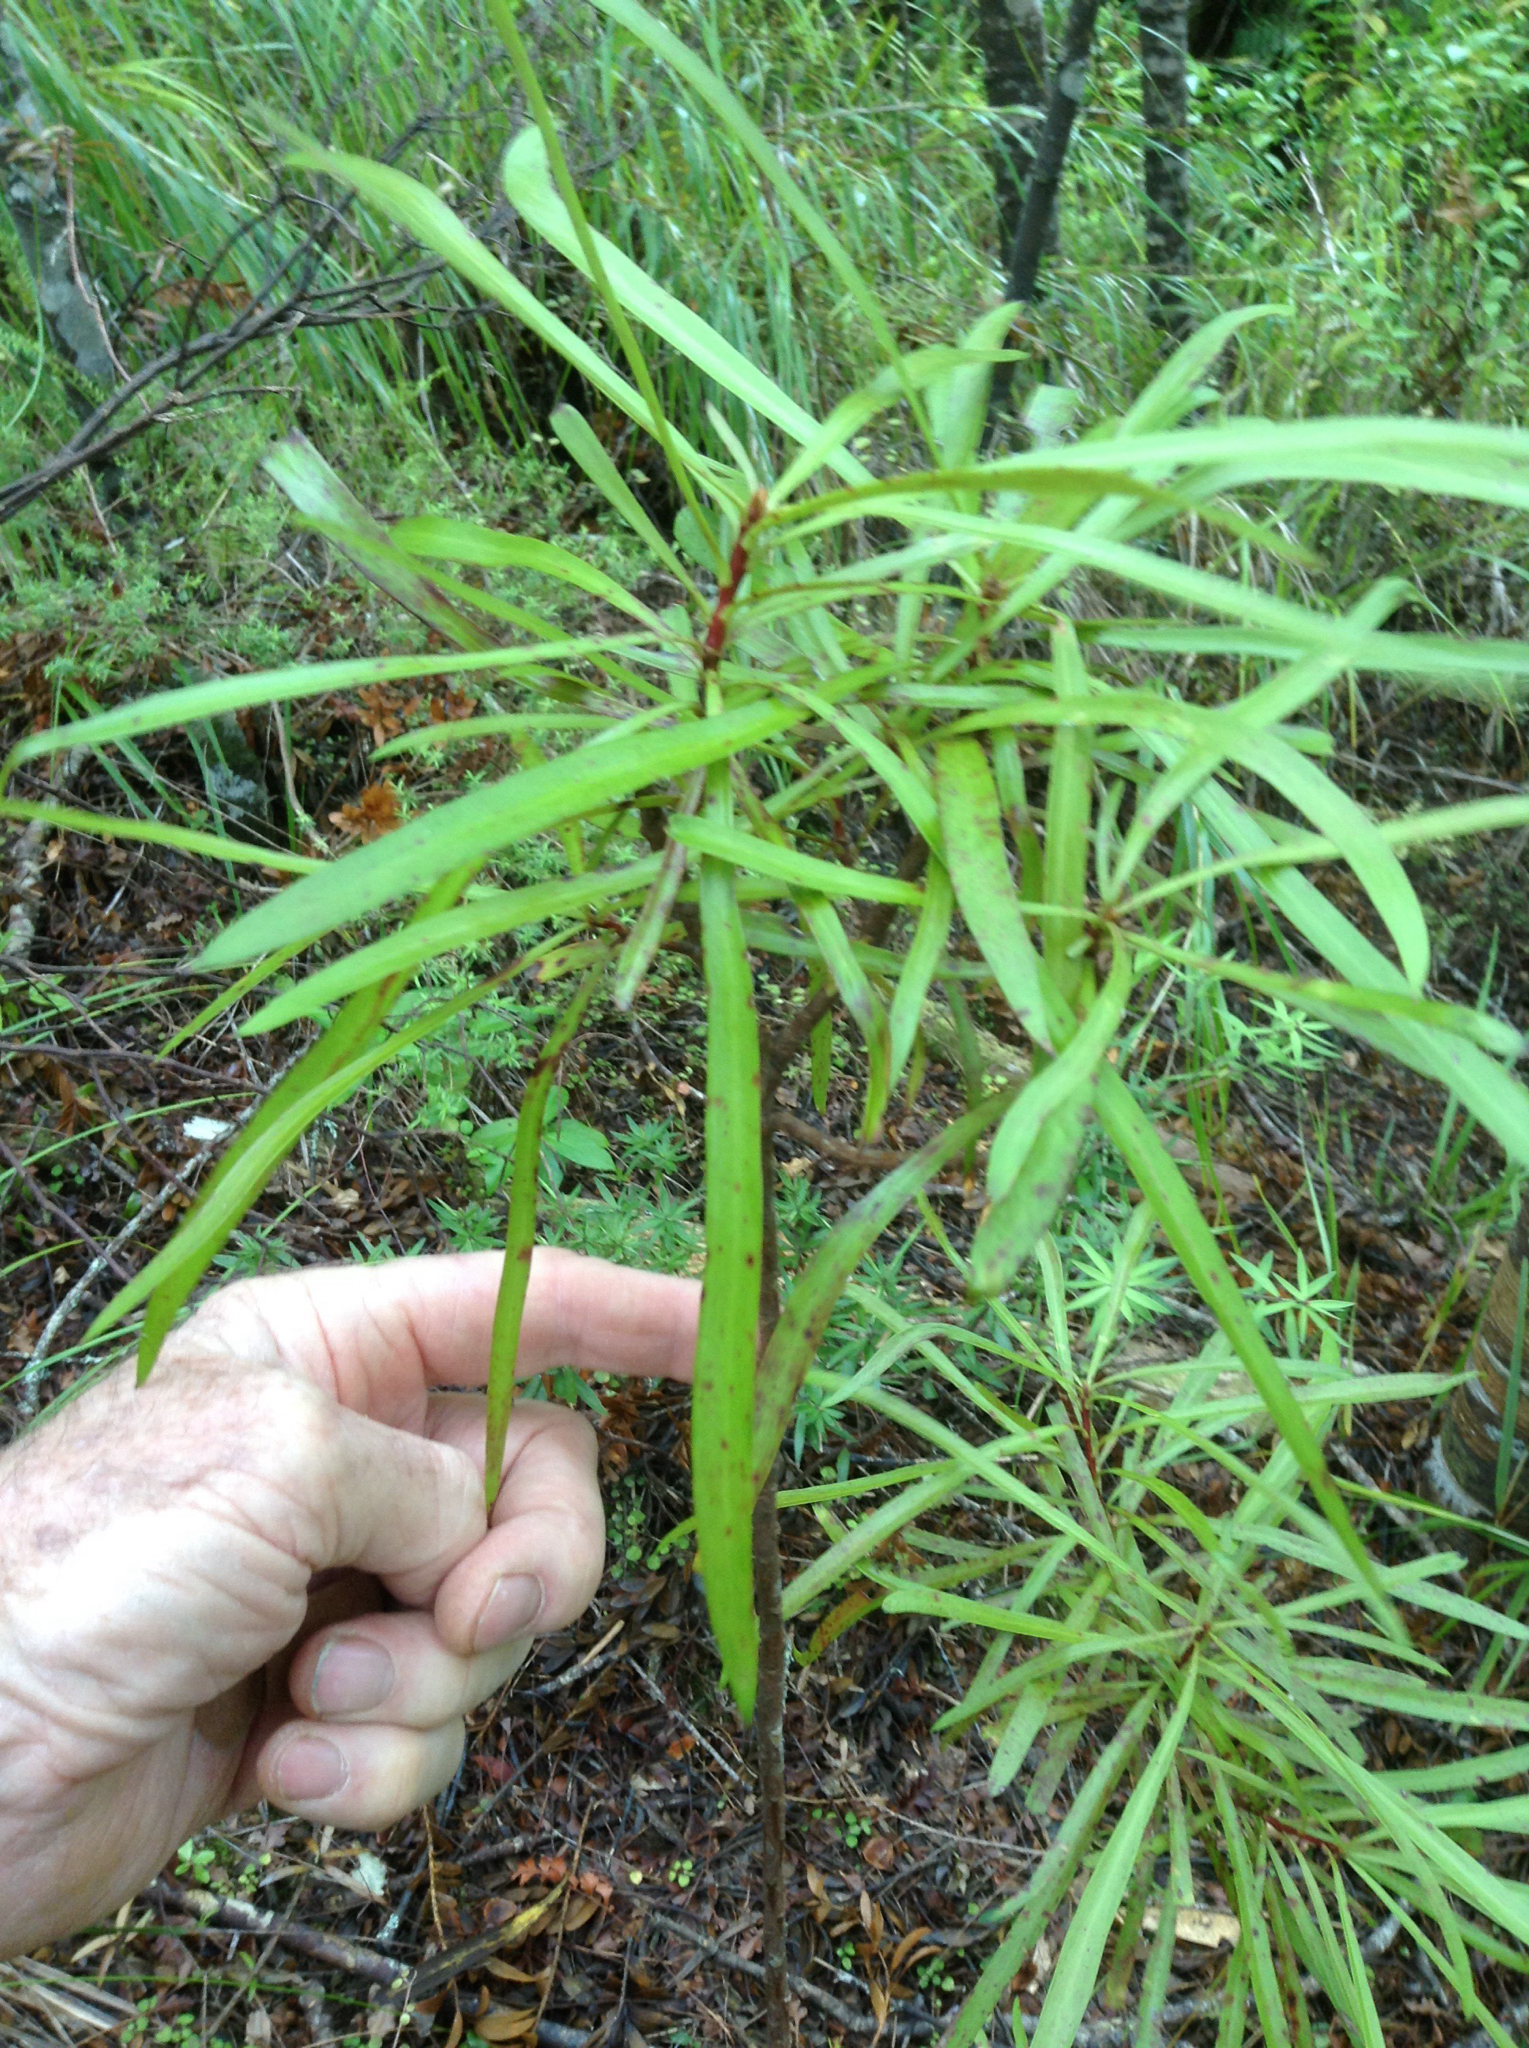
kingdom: Plantae
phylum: Tracheophyta
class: Magnoliopsida
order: Proteales
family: Proteaceae
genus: Toronia
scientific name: Toronia toru
